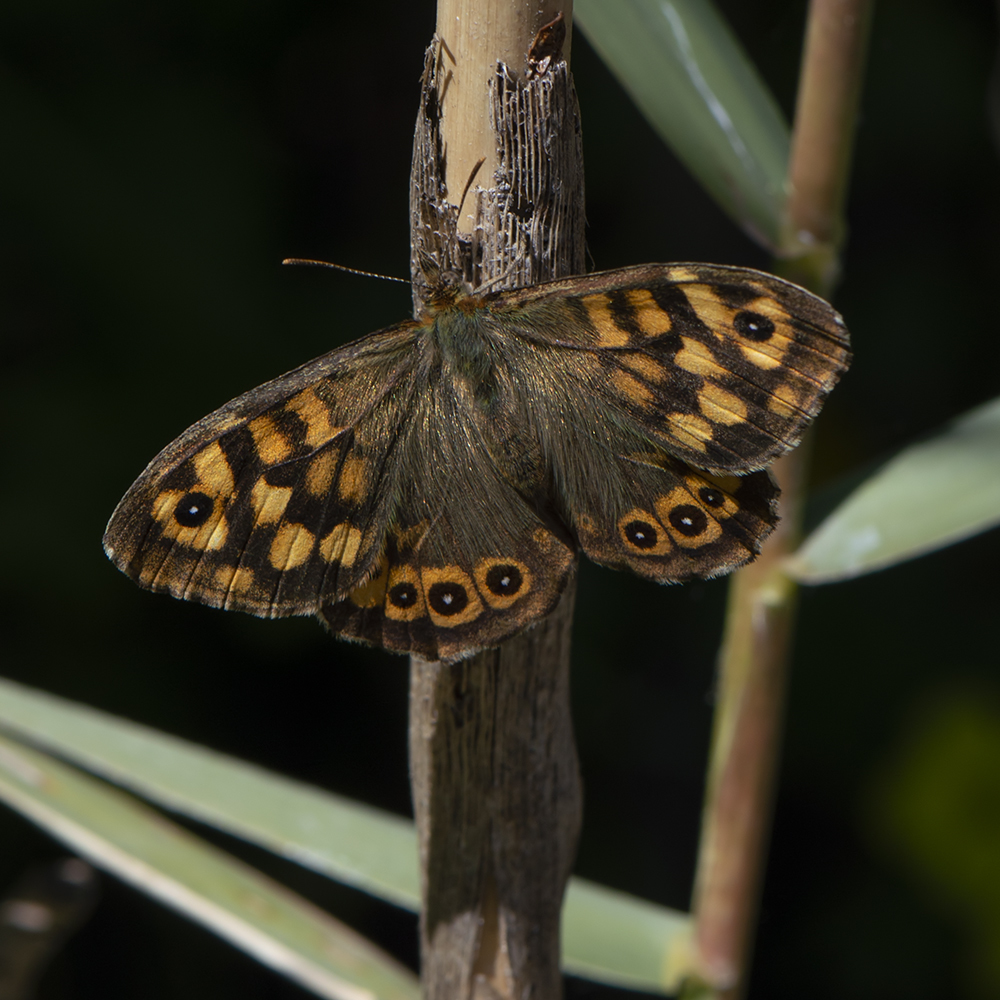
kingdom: Animalia
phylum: Arthropoda
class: Insecta
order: Lepidoptera
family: Nymphalidae
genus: Pararge
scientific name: Pararge aegeria
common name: Speckled wood
